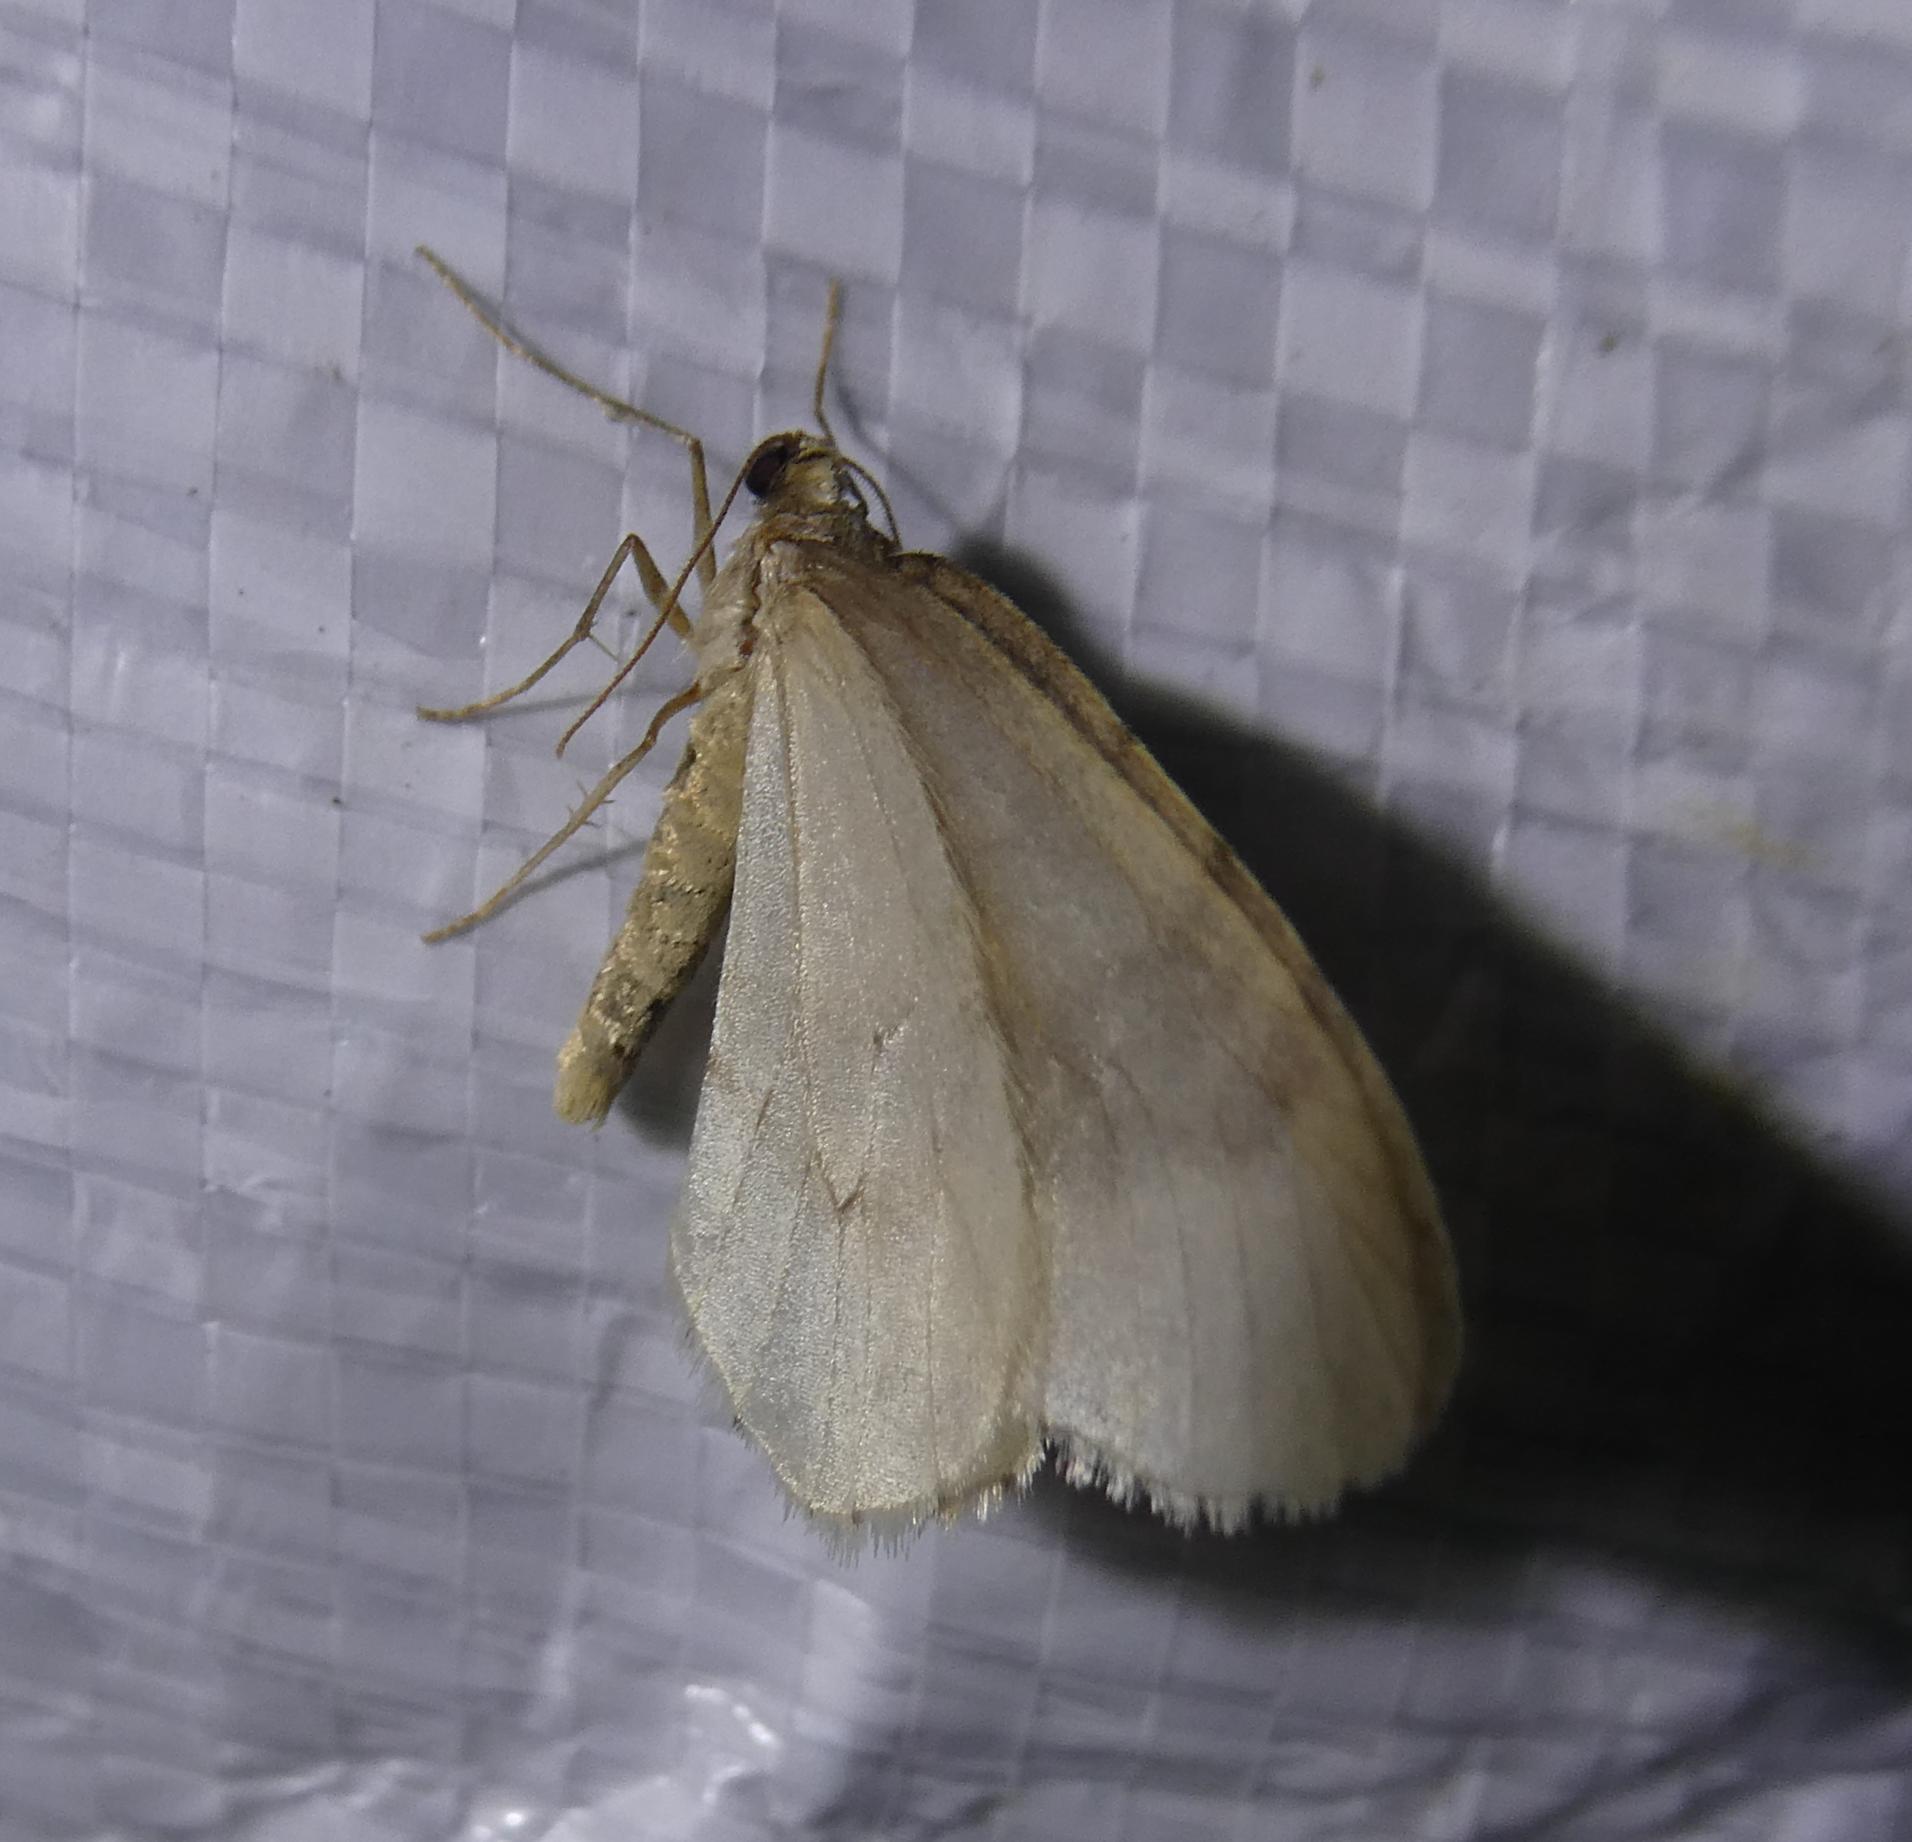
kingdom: Animalia
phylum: Arthropoda
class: Insecta
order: Lepidoptera
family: Geometridae
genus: Operophtera
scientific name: Operophtera brumata
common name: Winter moth
